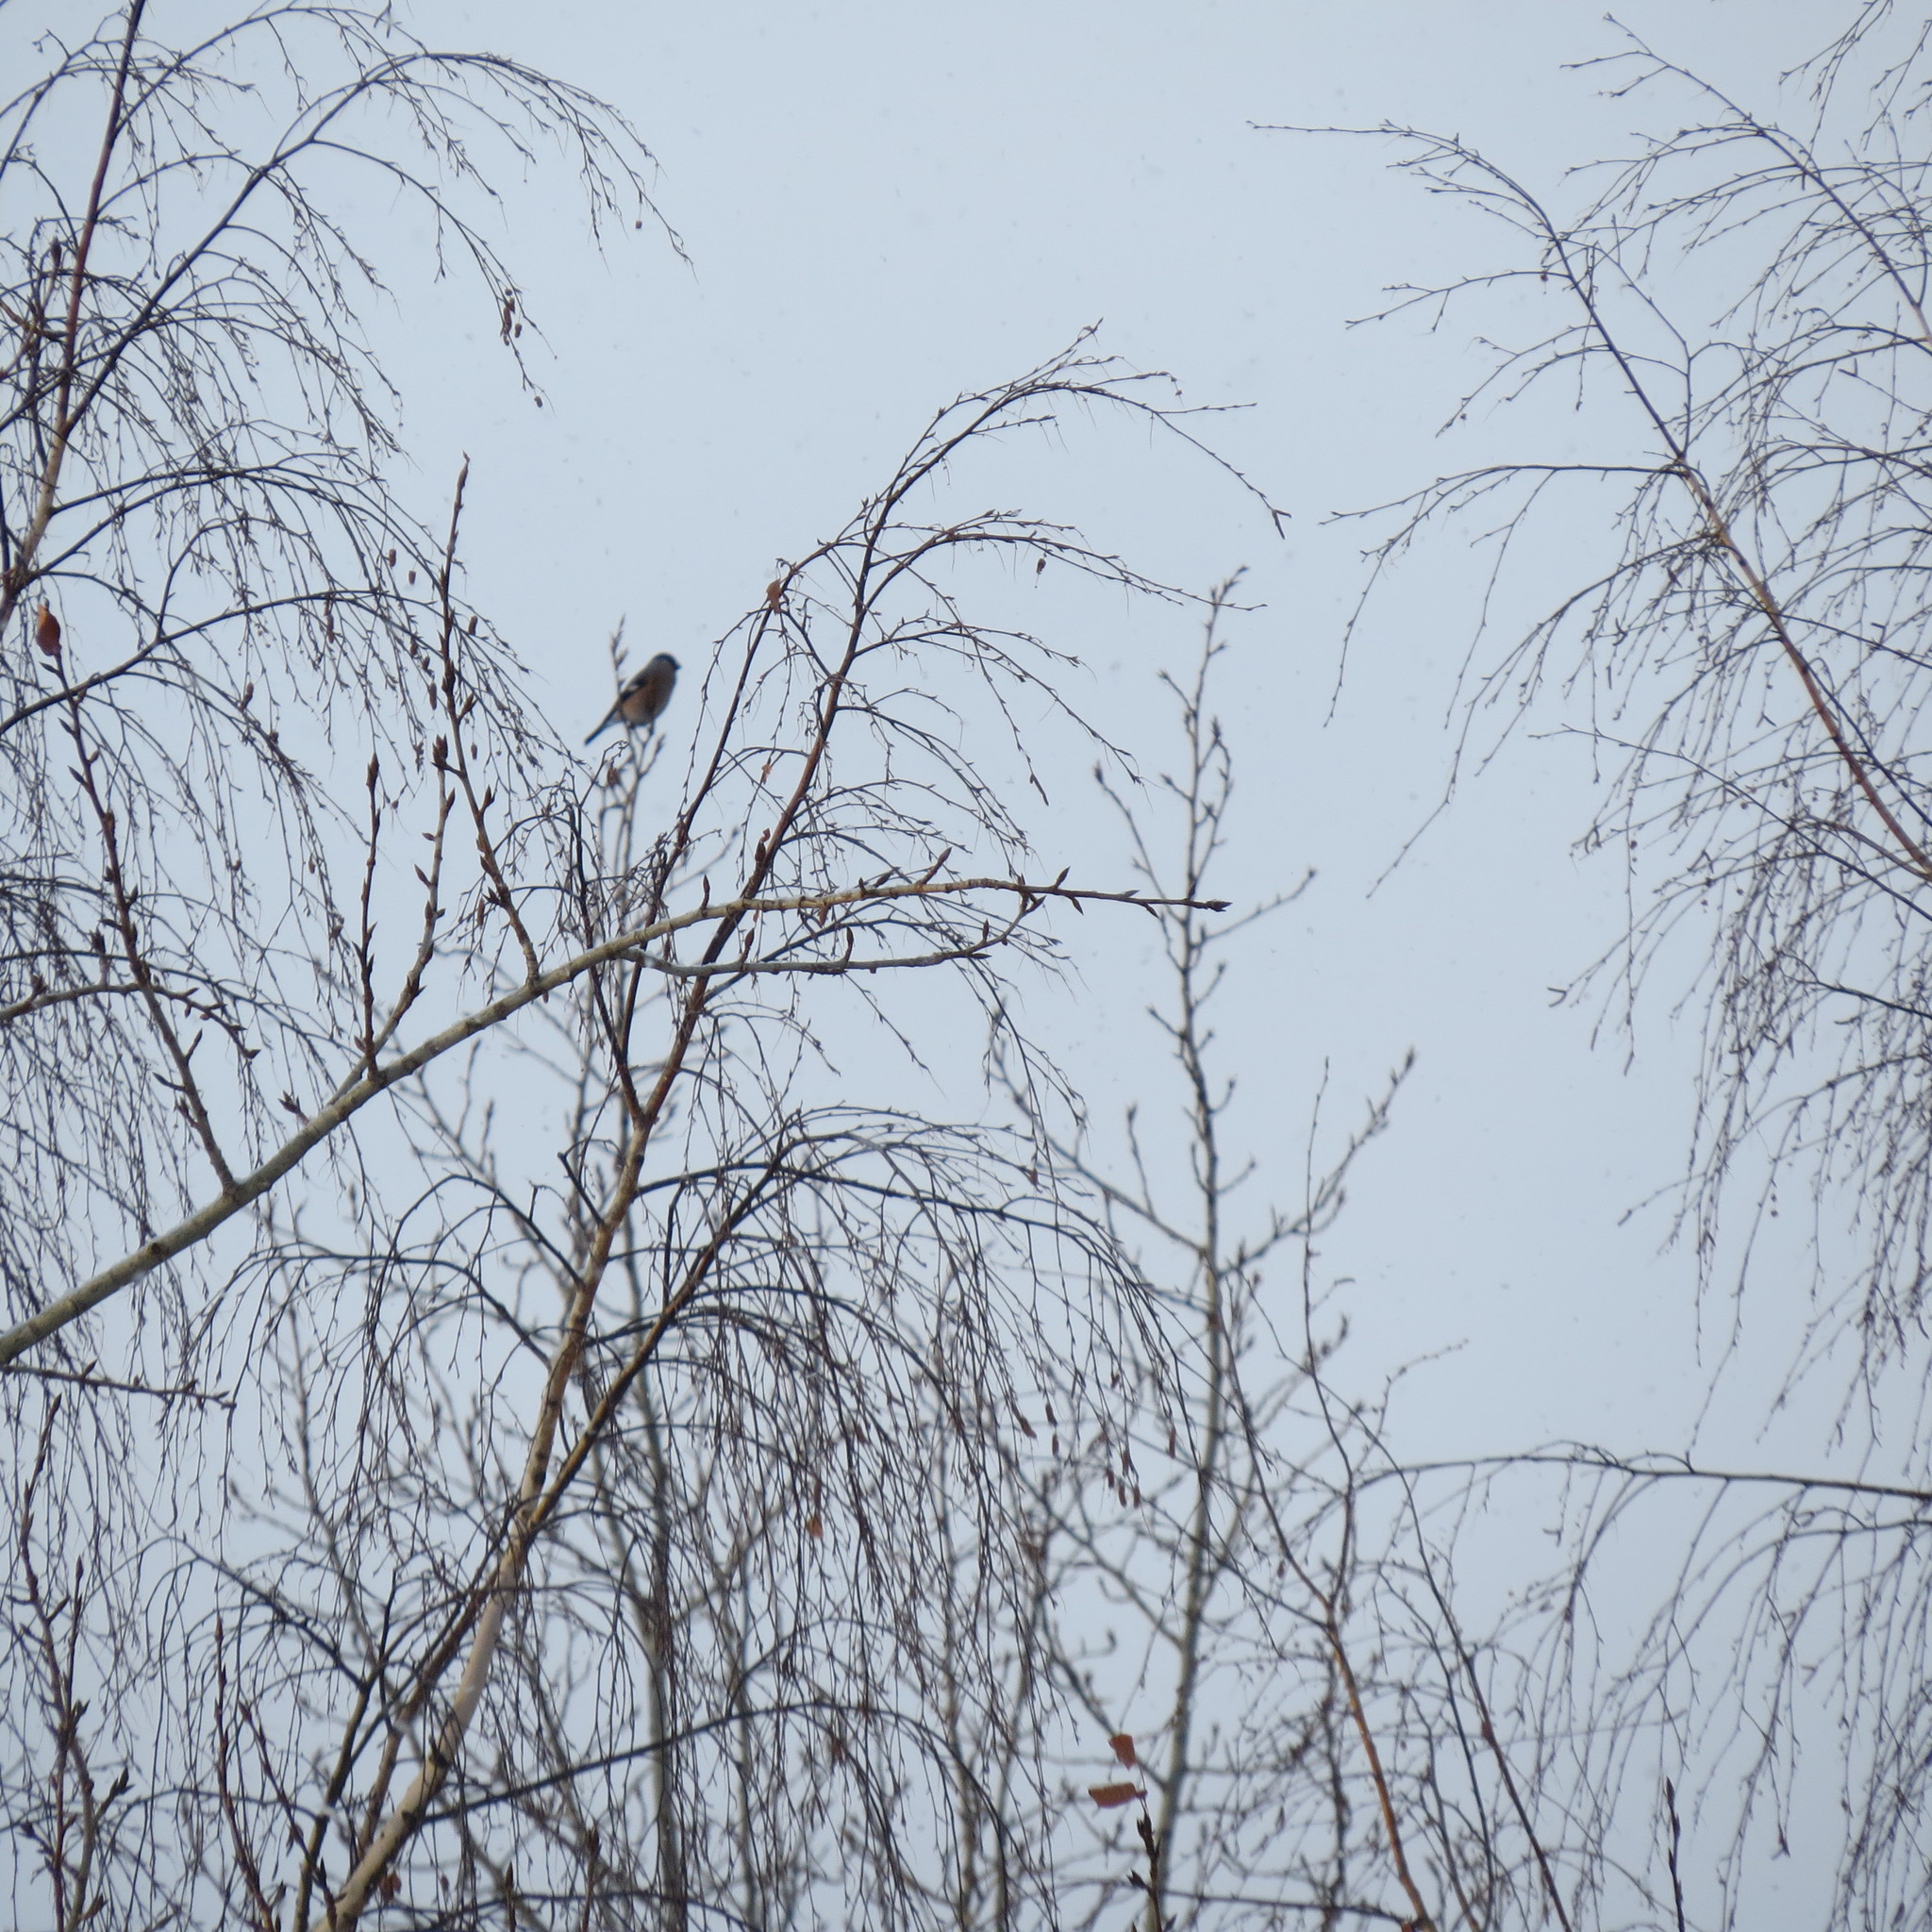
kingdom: Animalia
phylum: Chordata
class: Aves
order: Passeriformes
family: Fringillidae
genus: Pyrrhula
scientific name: Pyrrhula pyrrhula
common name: Eurasian bullfinch
